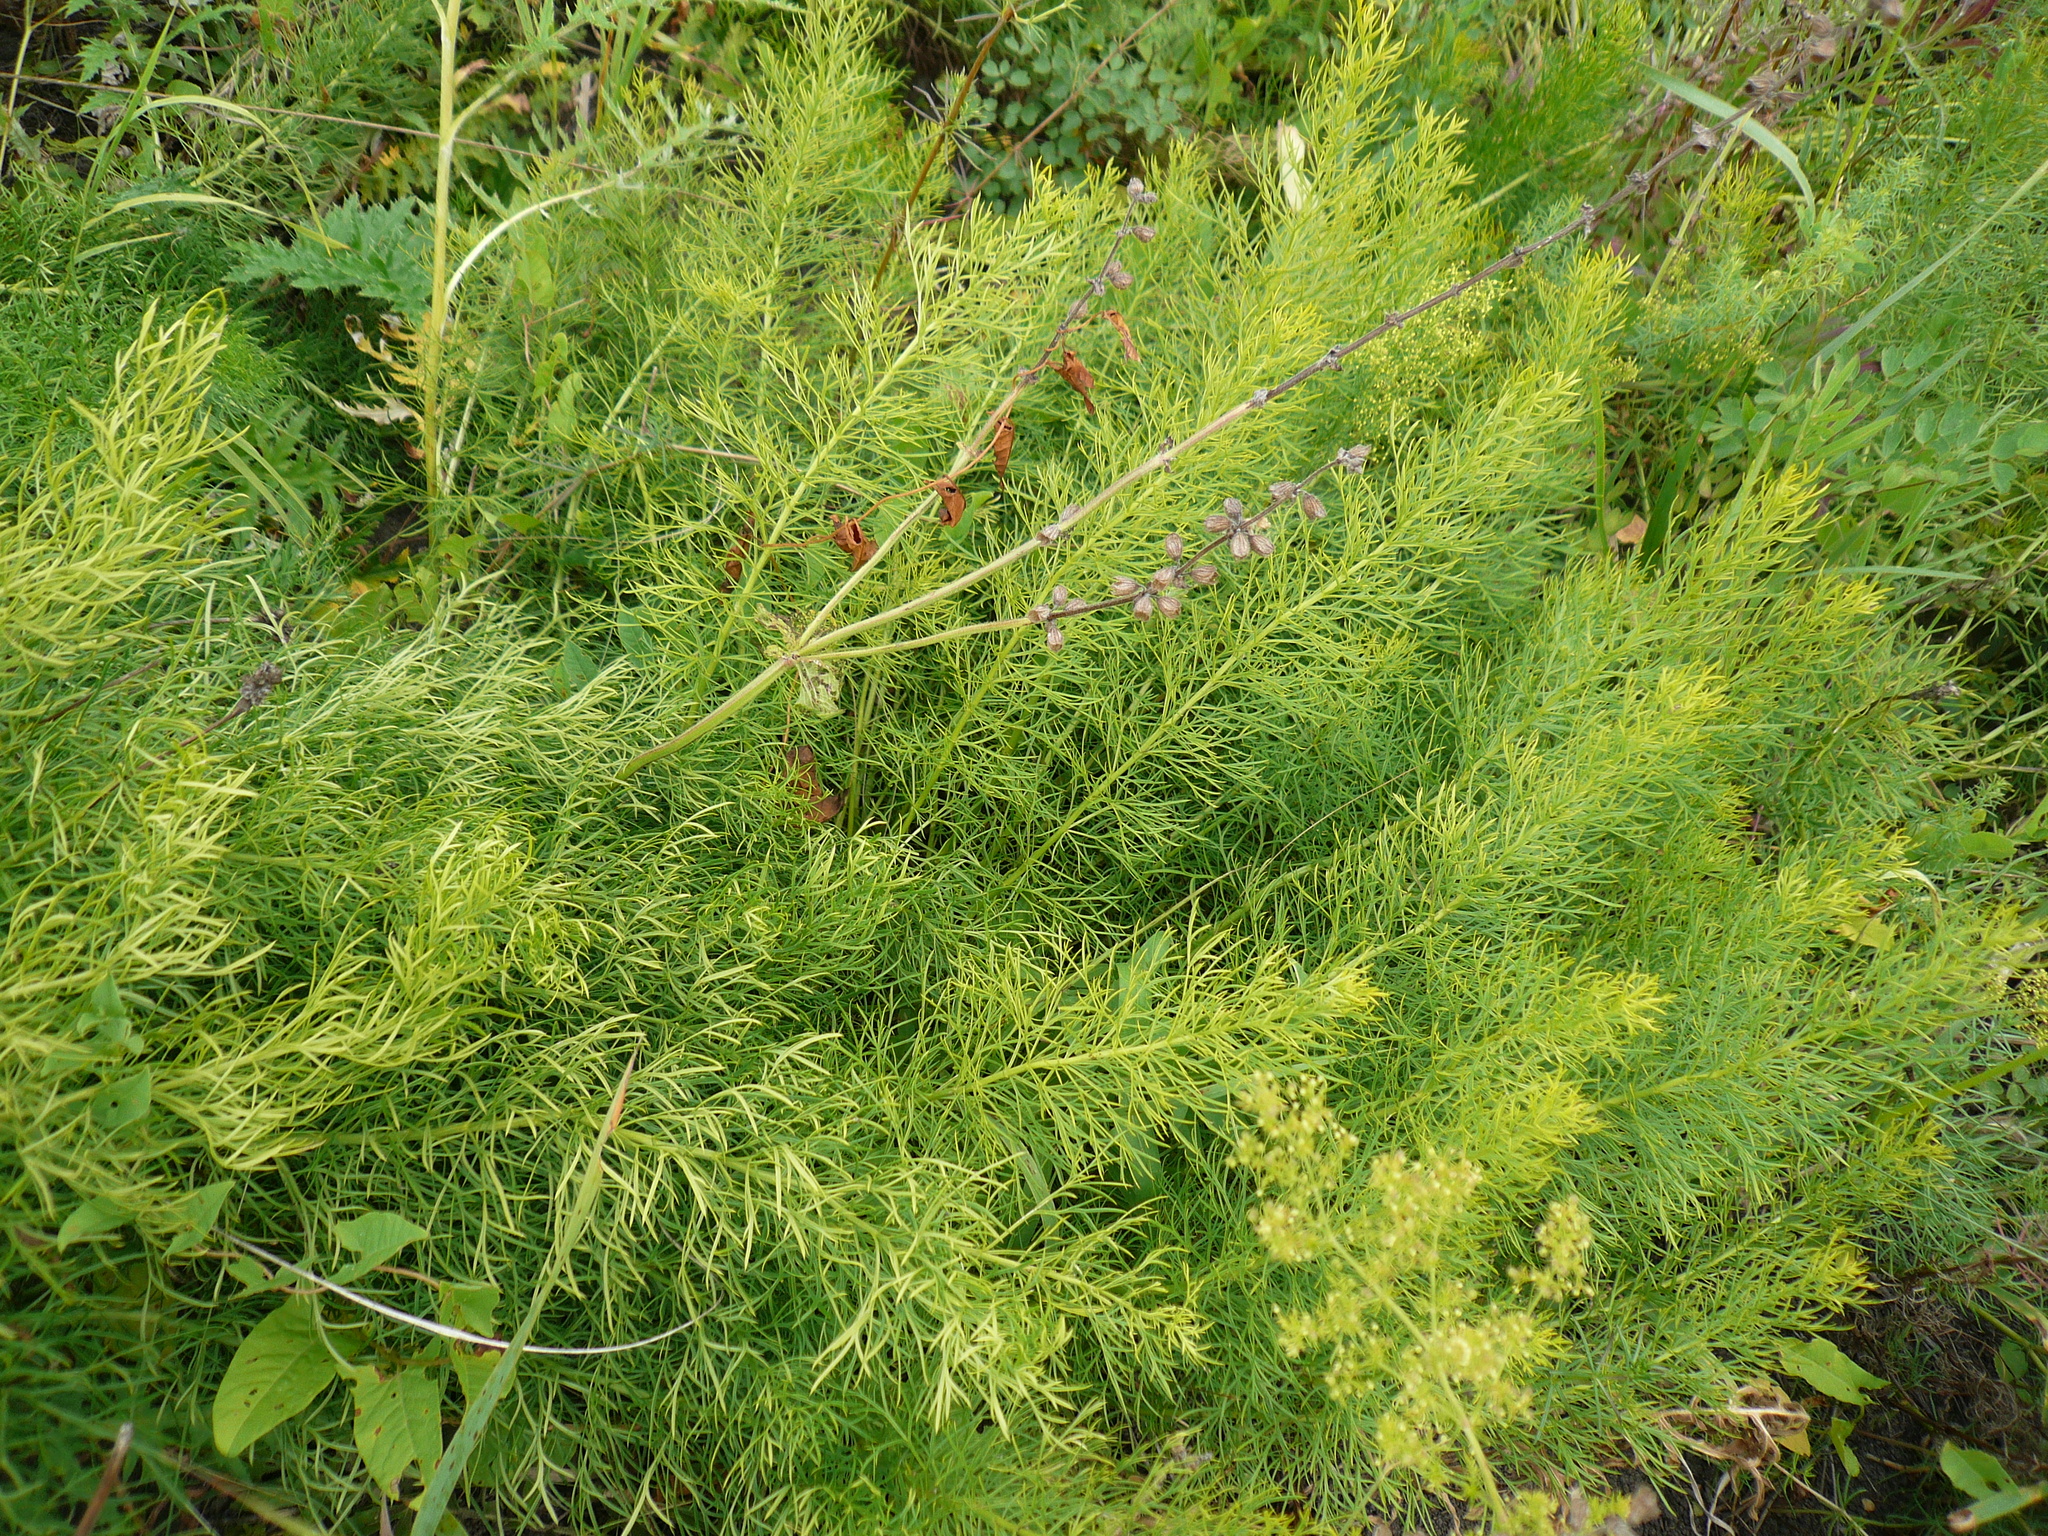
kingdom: Plantae
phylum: Tracheophyta
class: Magnoliopsida
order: Ranunculales
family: Ranunculaceae
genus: Adonis
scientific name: Adonis vernalis
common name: Yellow pheasants-eye
